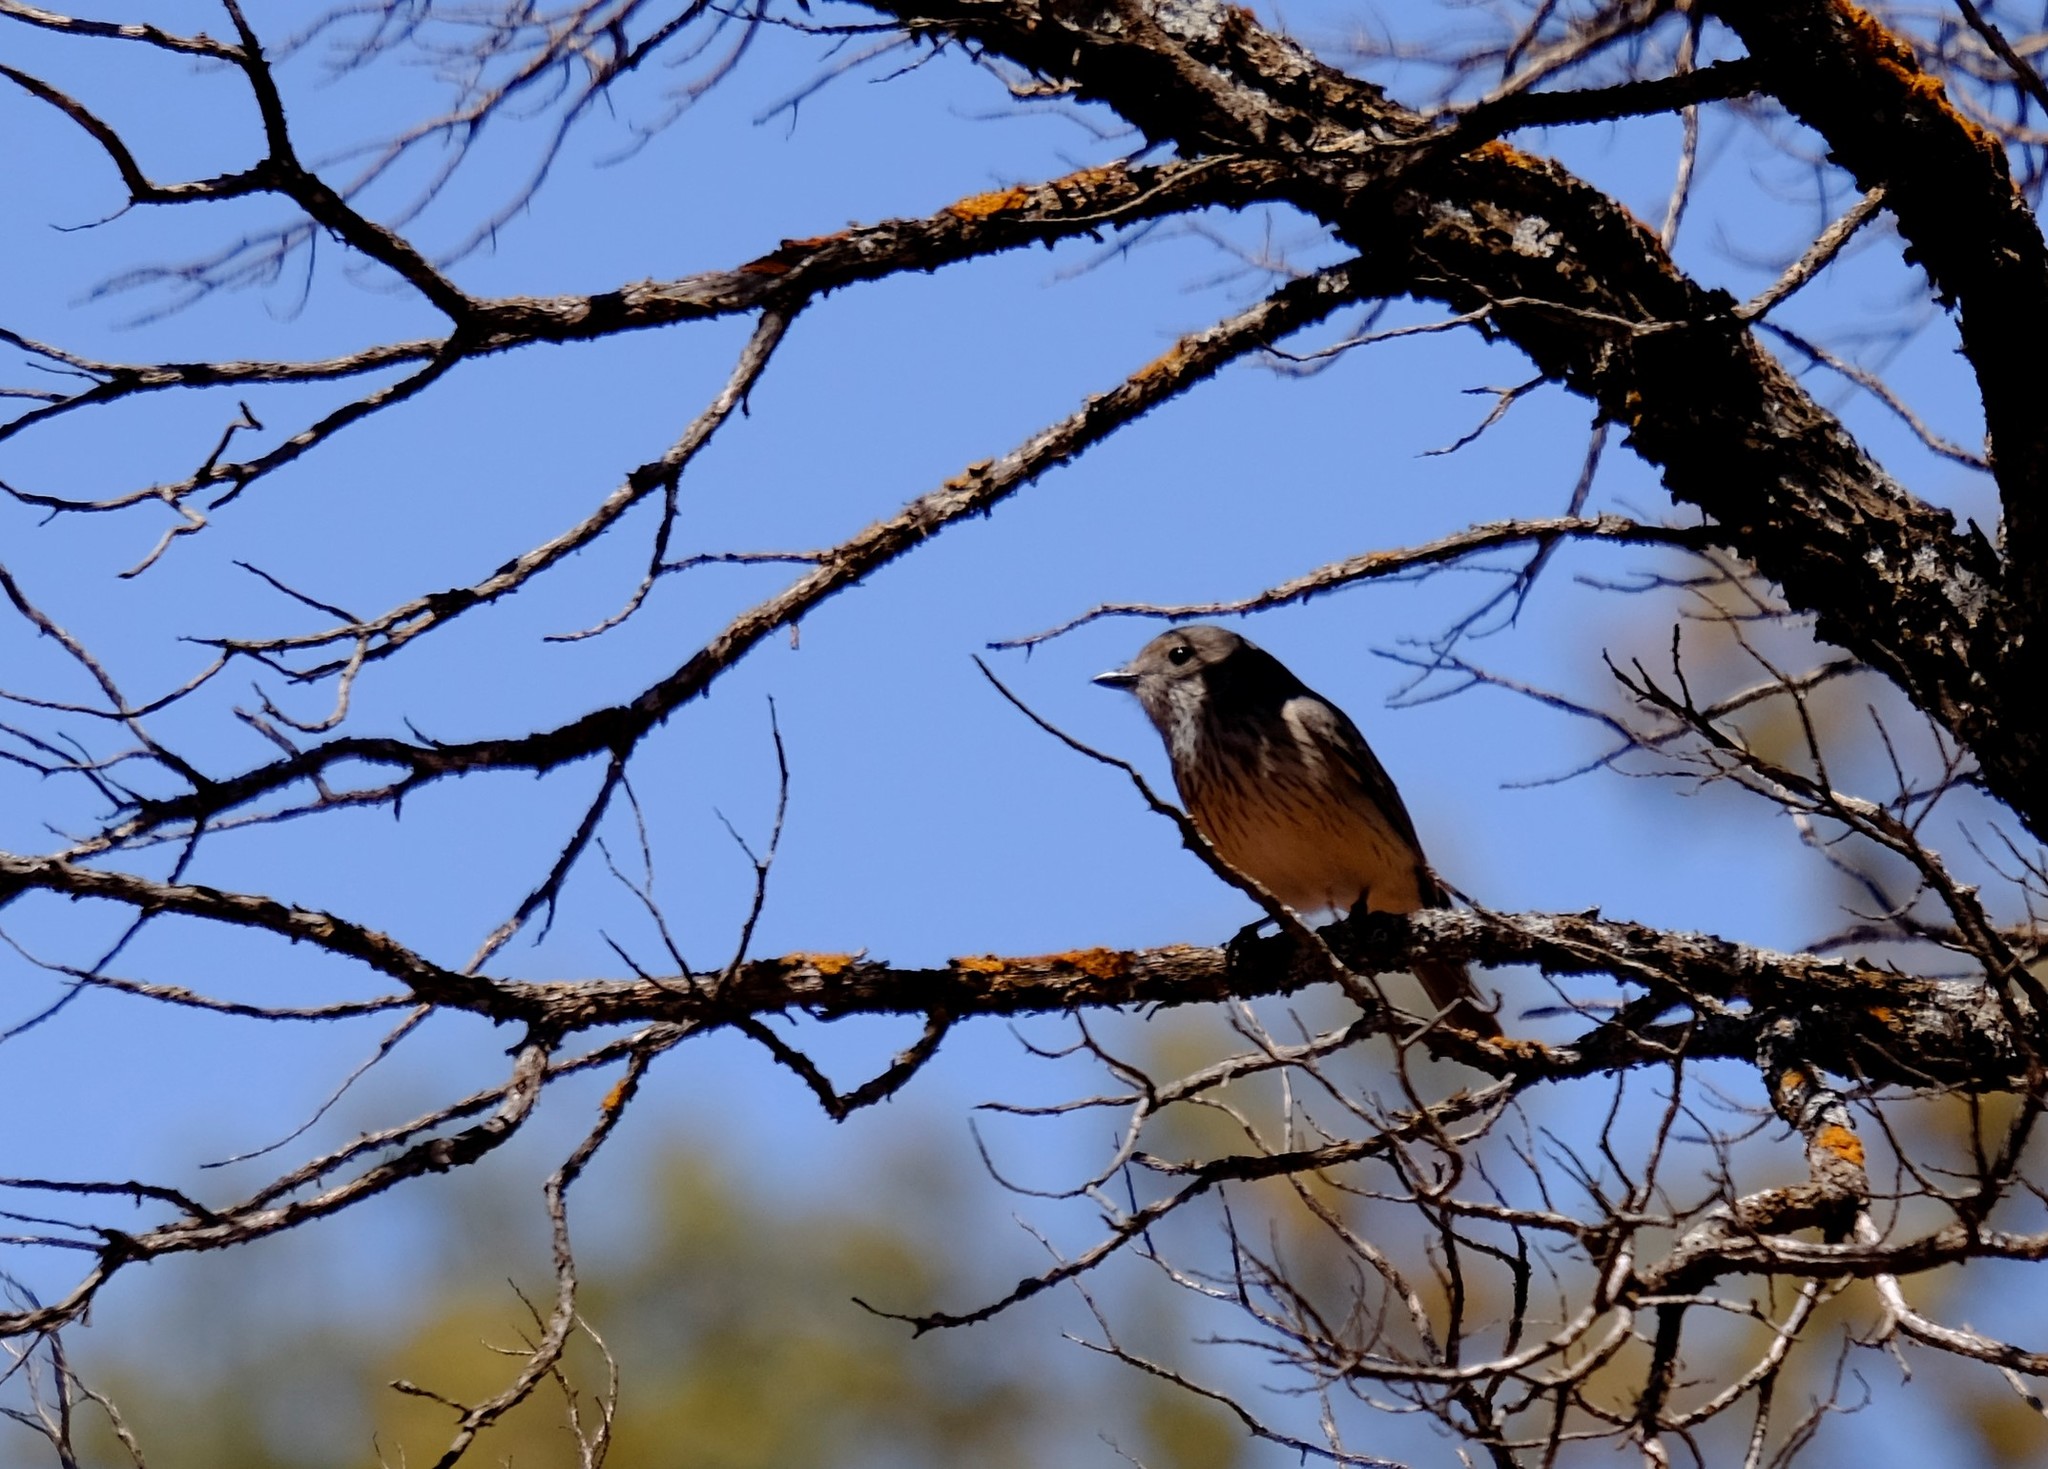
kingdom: Animalia
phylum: Chordata
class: Aves
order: Passeriformes
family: Pachycephalidae
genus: Pachycephala
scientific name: Pachycephala rufiventris
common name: Rufous whistler
